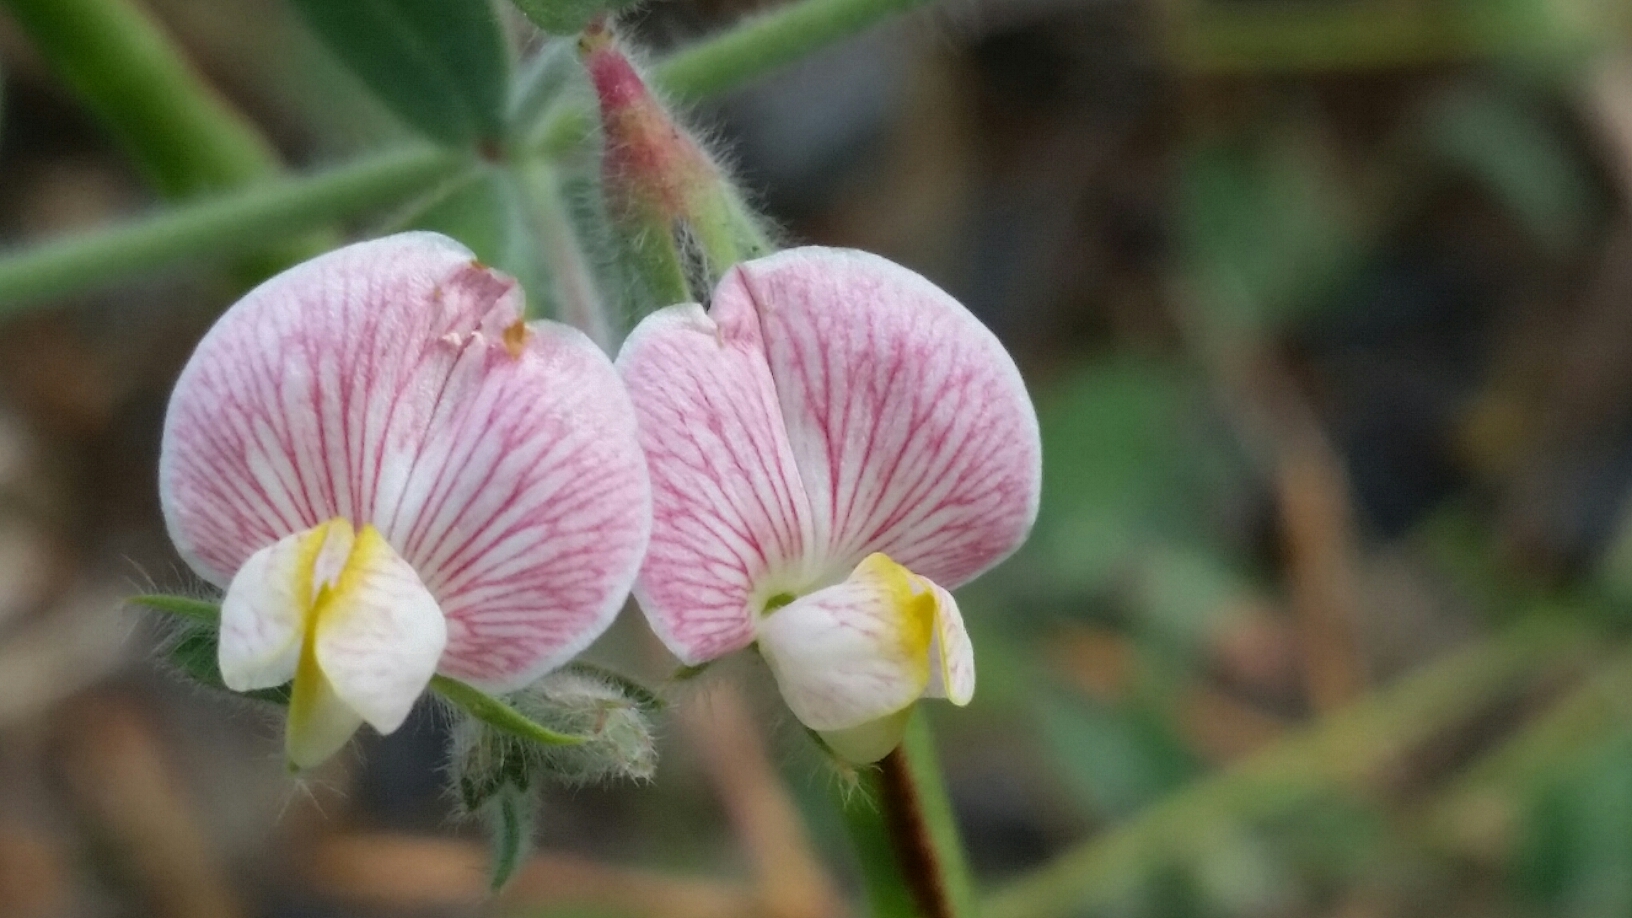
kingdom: Plantae
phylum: Tracheophyta
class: Magnoliopsida
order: Fabales
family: Fabaceae
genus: Acmispon
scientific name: Acmispon americanus
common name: American bird's-foot trefoil
